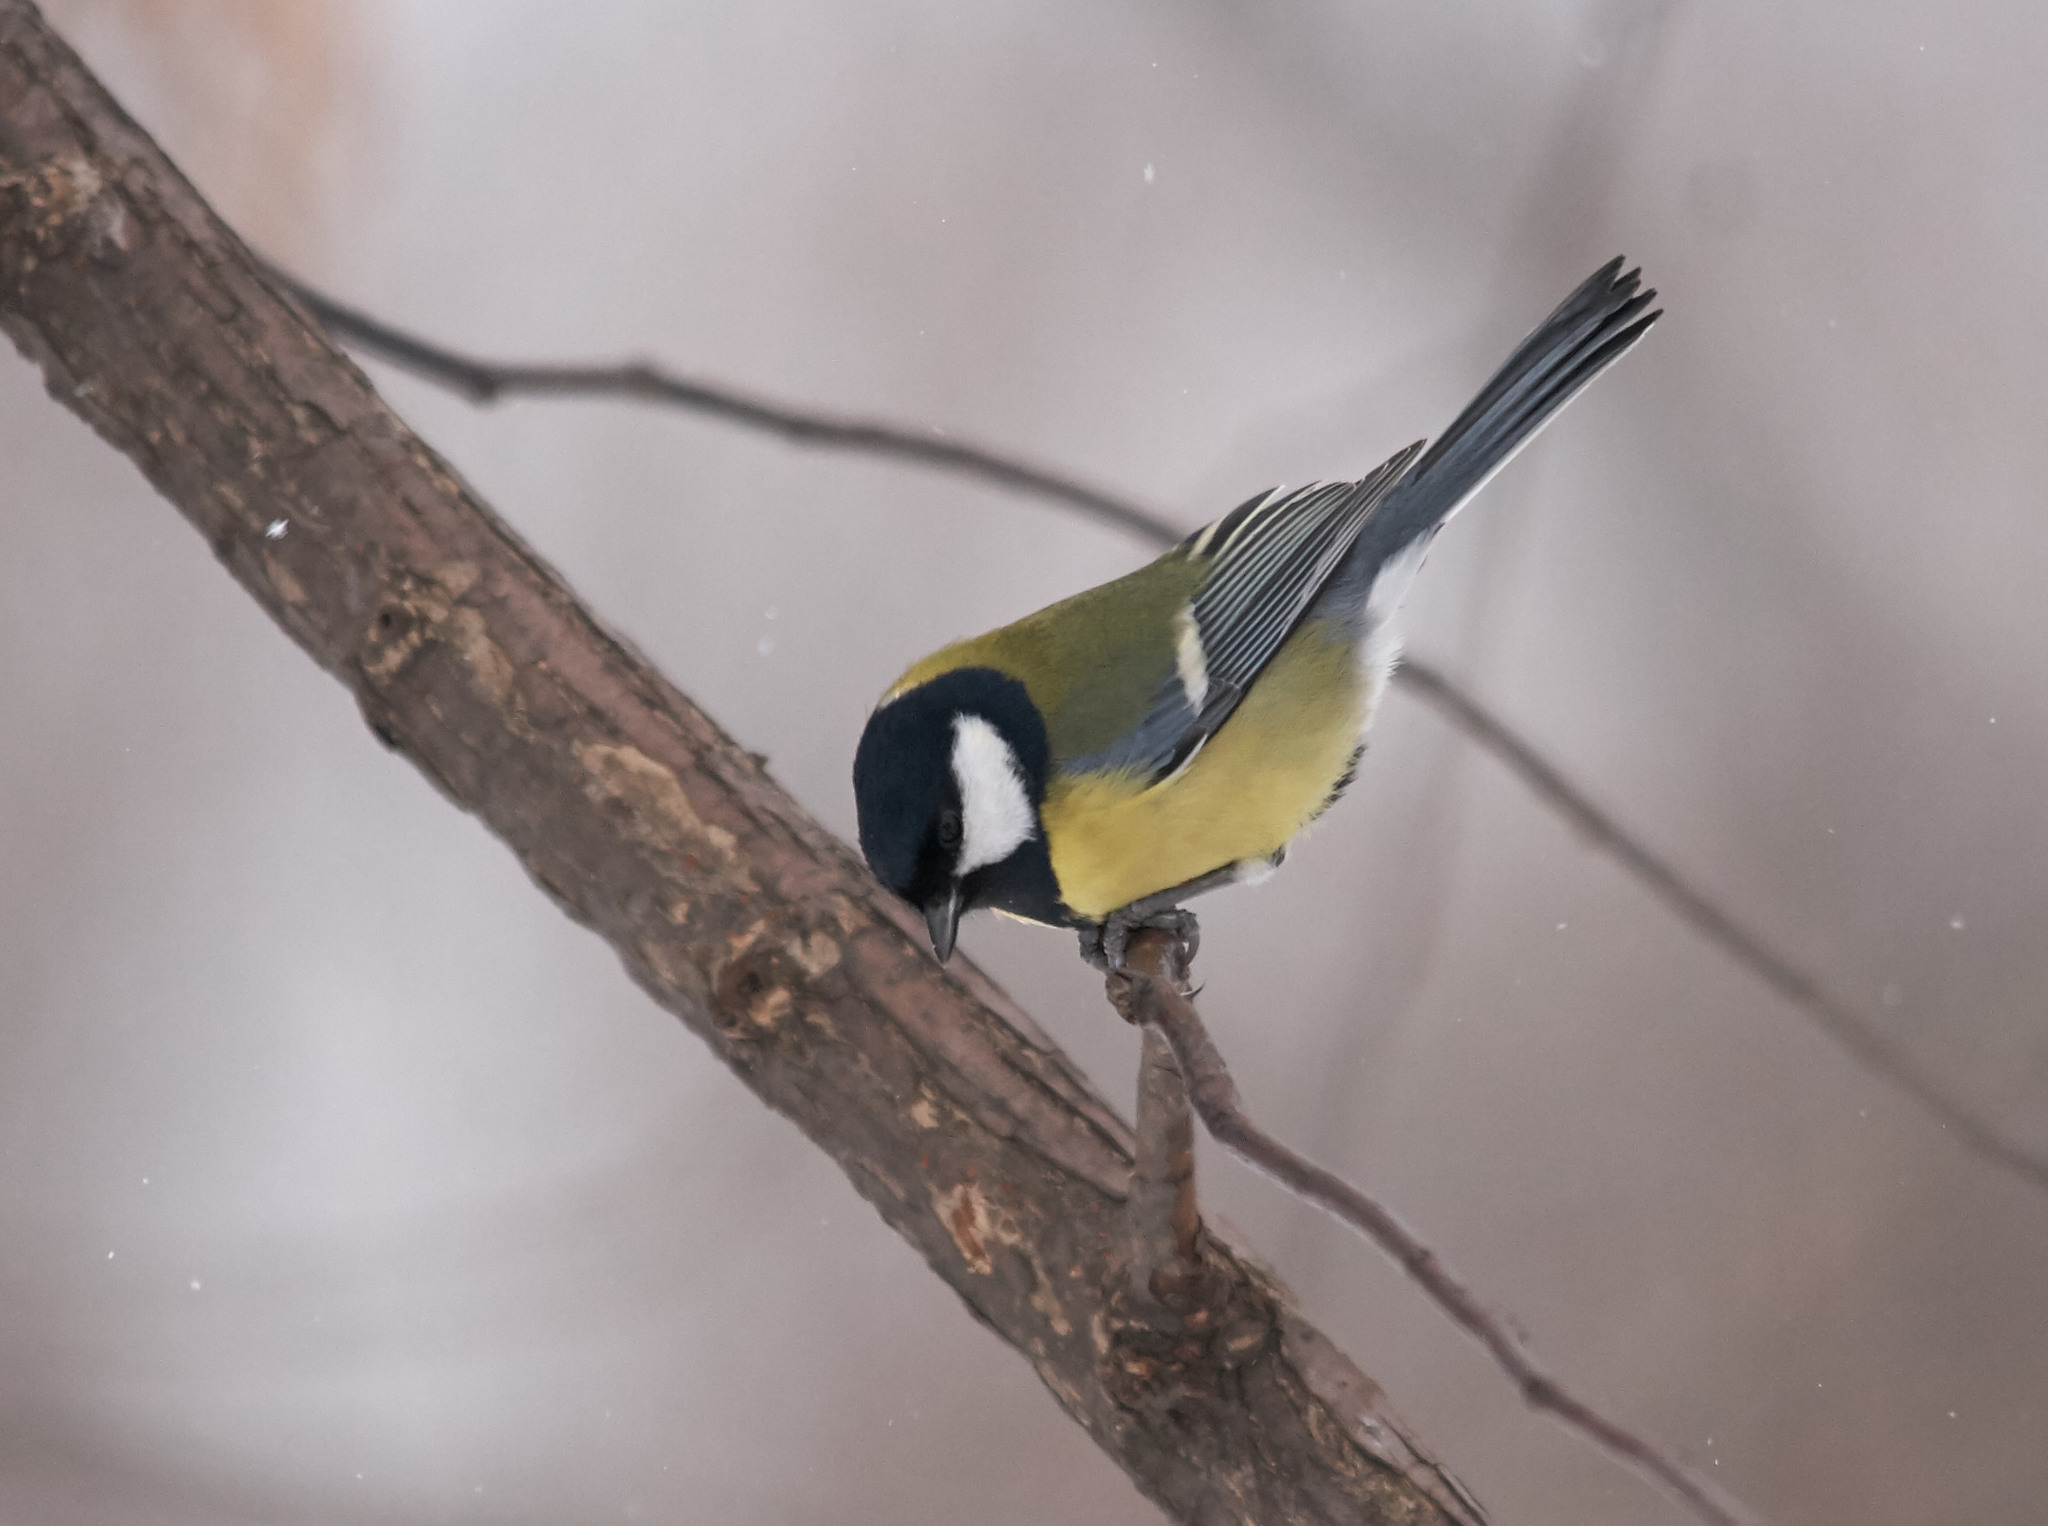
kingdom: Animalia
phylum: Chordata
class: Aves
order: Passeriformes
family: Paridae
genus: Parus
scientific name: Parus major
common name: Great tit
